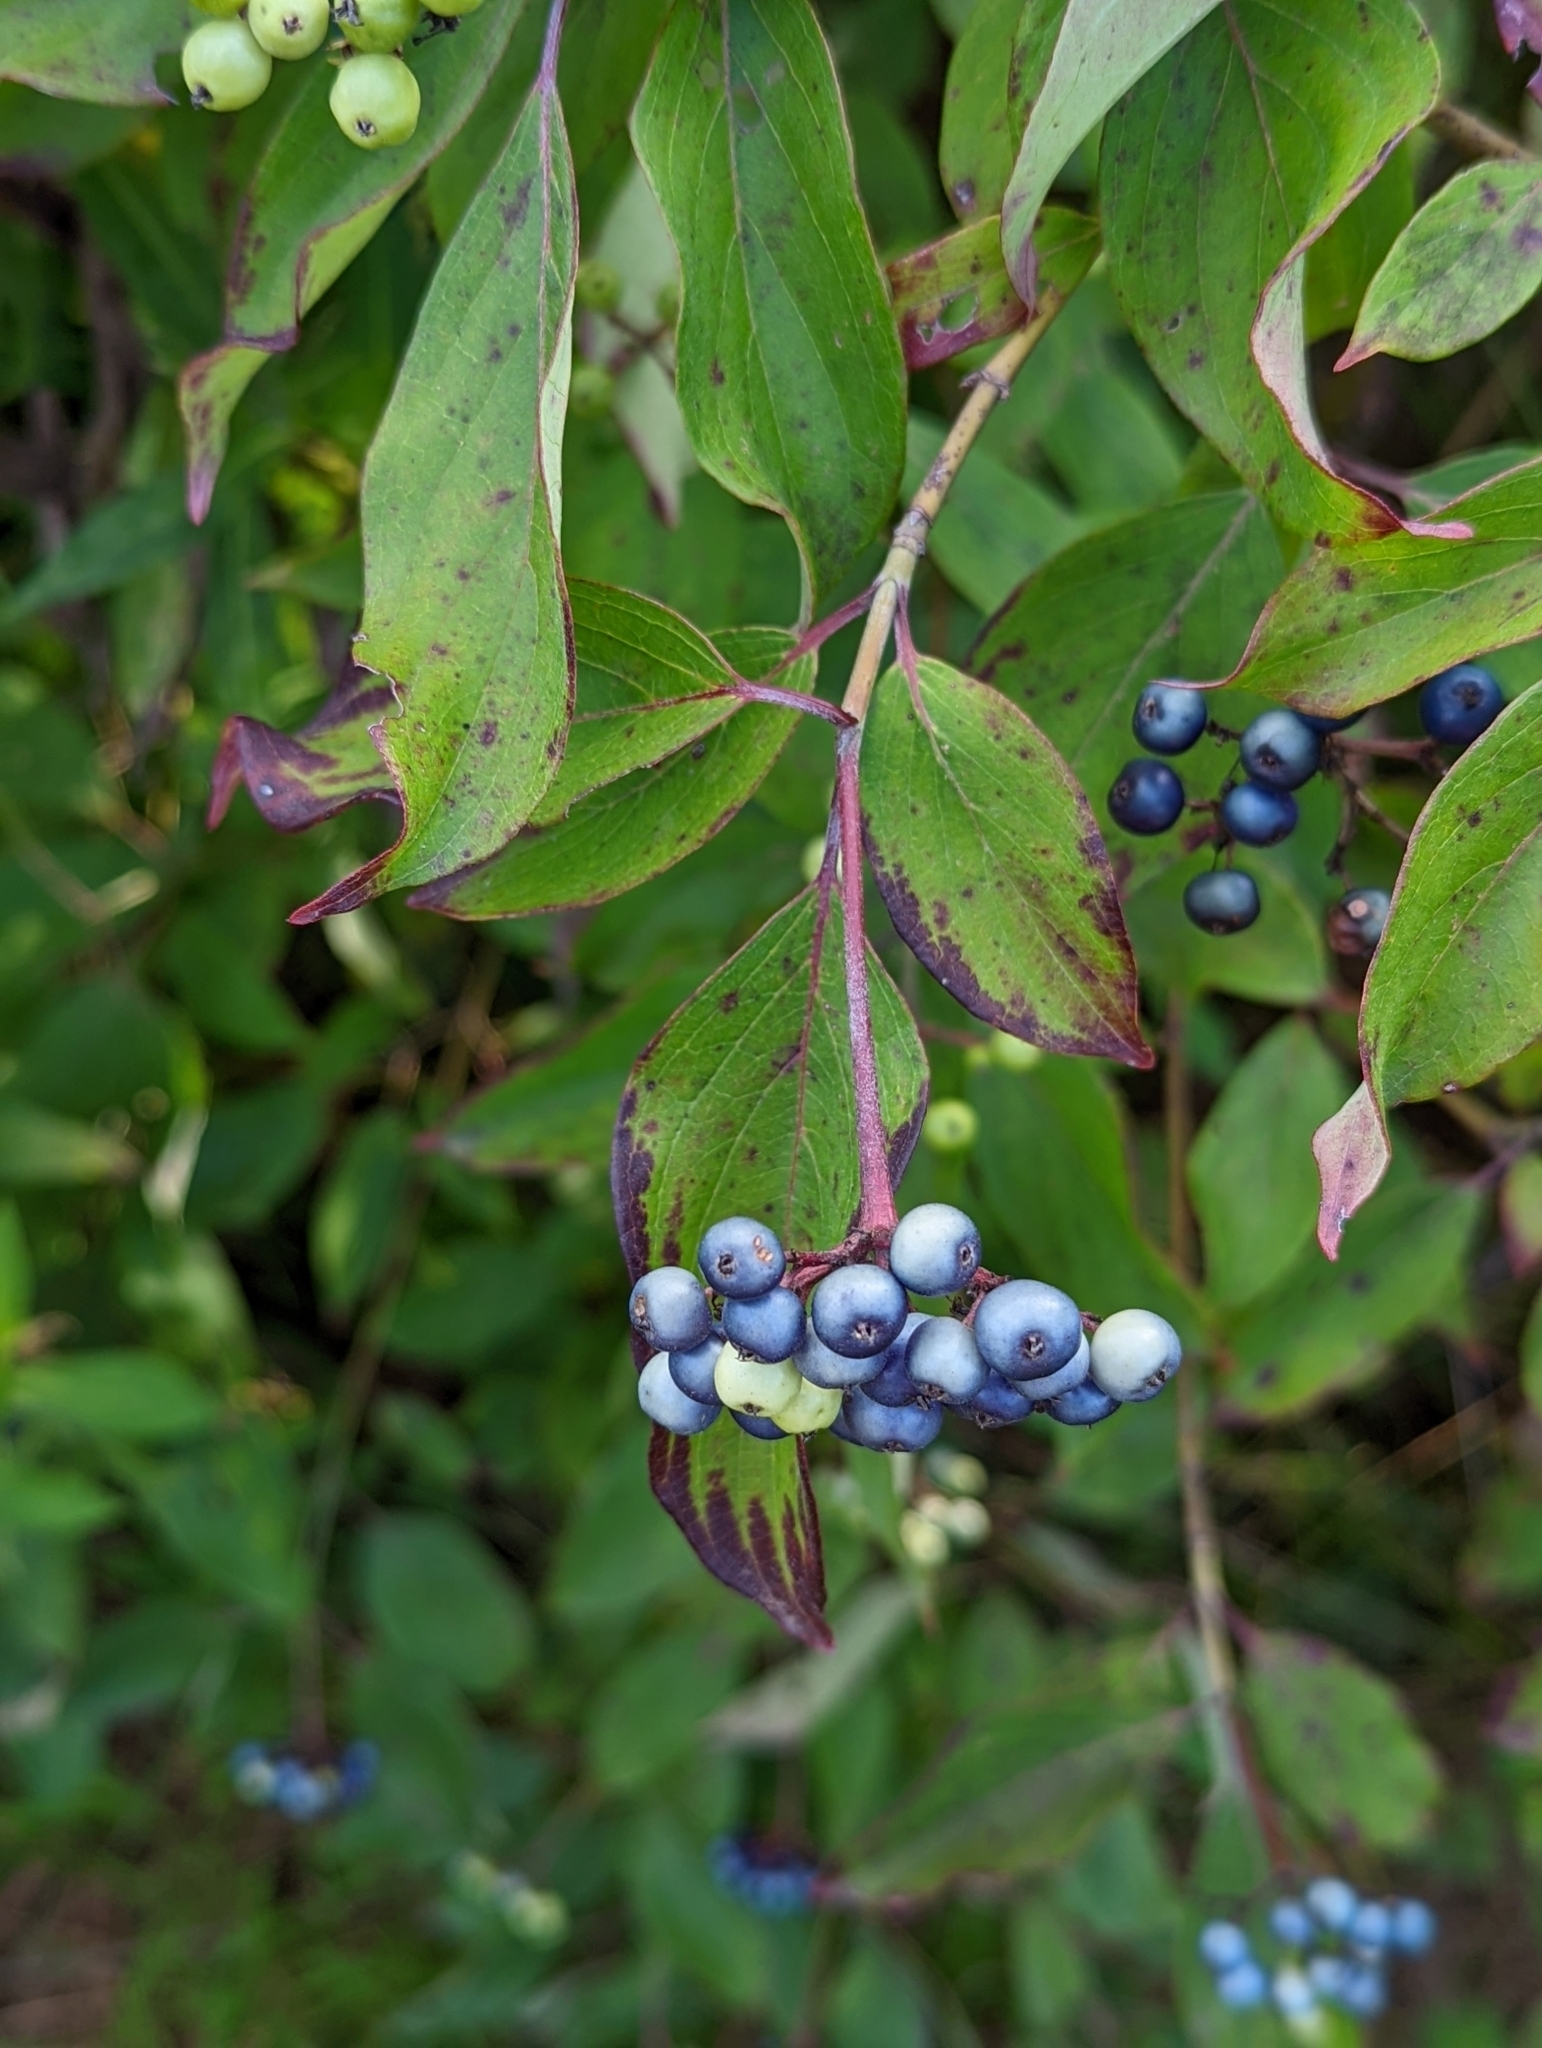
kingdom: Plantae
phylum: Tracheophyta
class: Magnoliopsida
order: Cornales
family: Cornaceae
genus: Cornus
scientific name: Cornus amomum
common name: Silky dogwood
